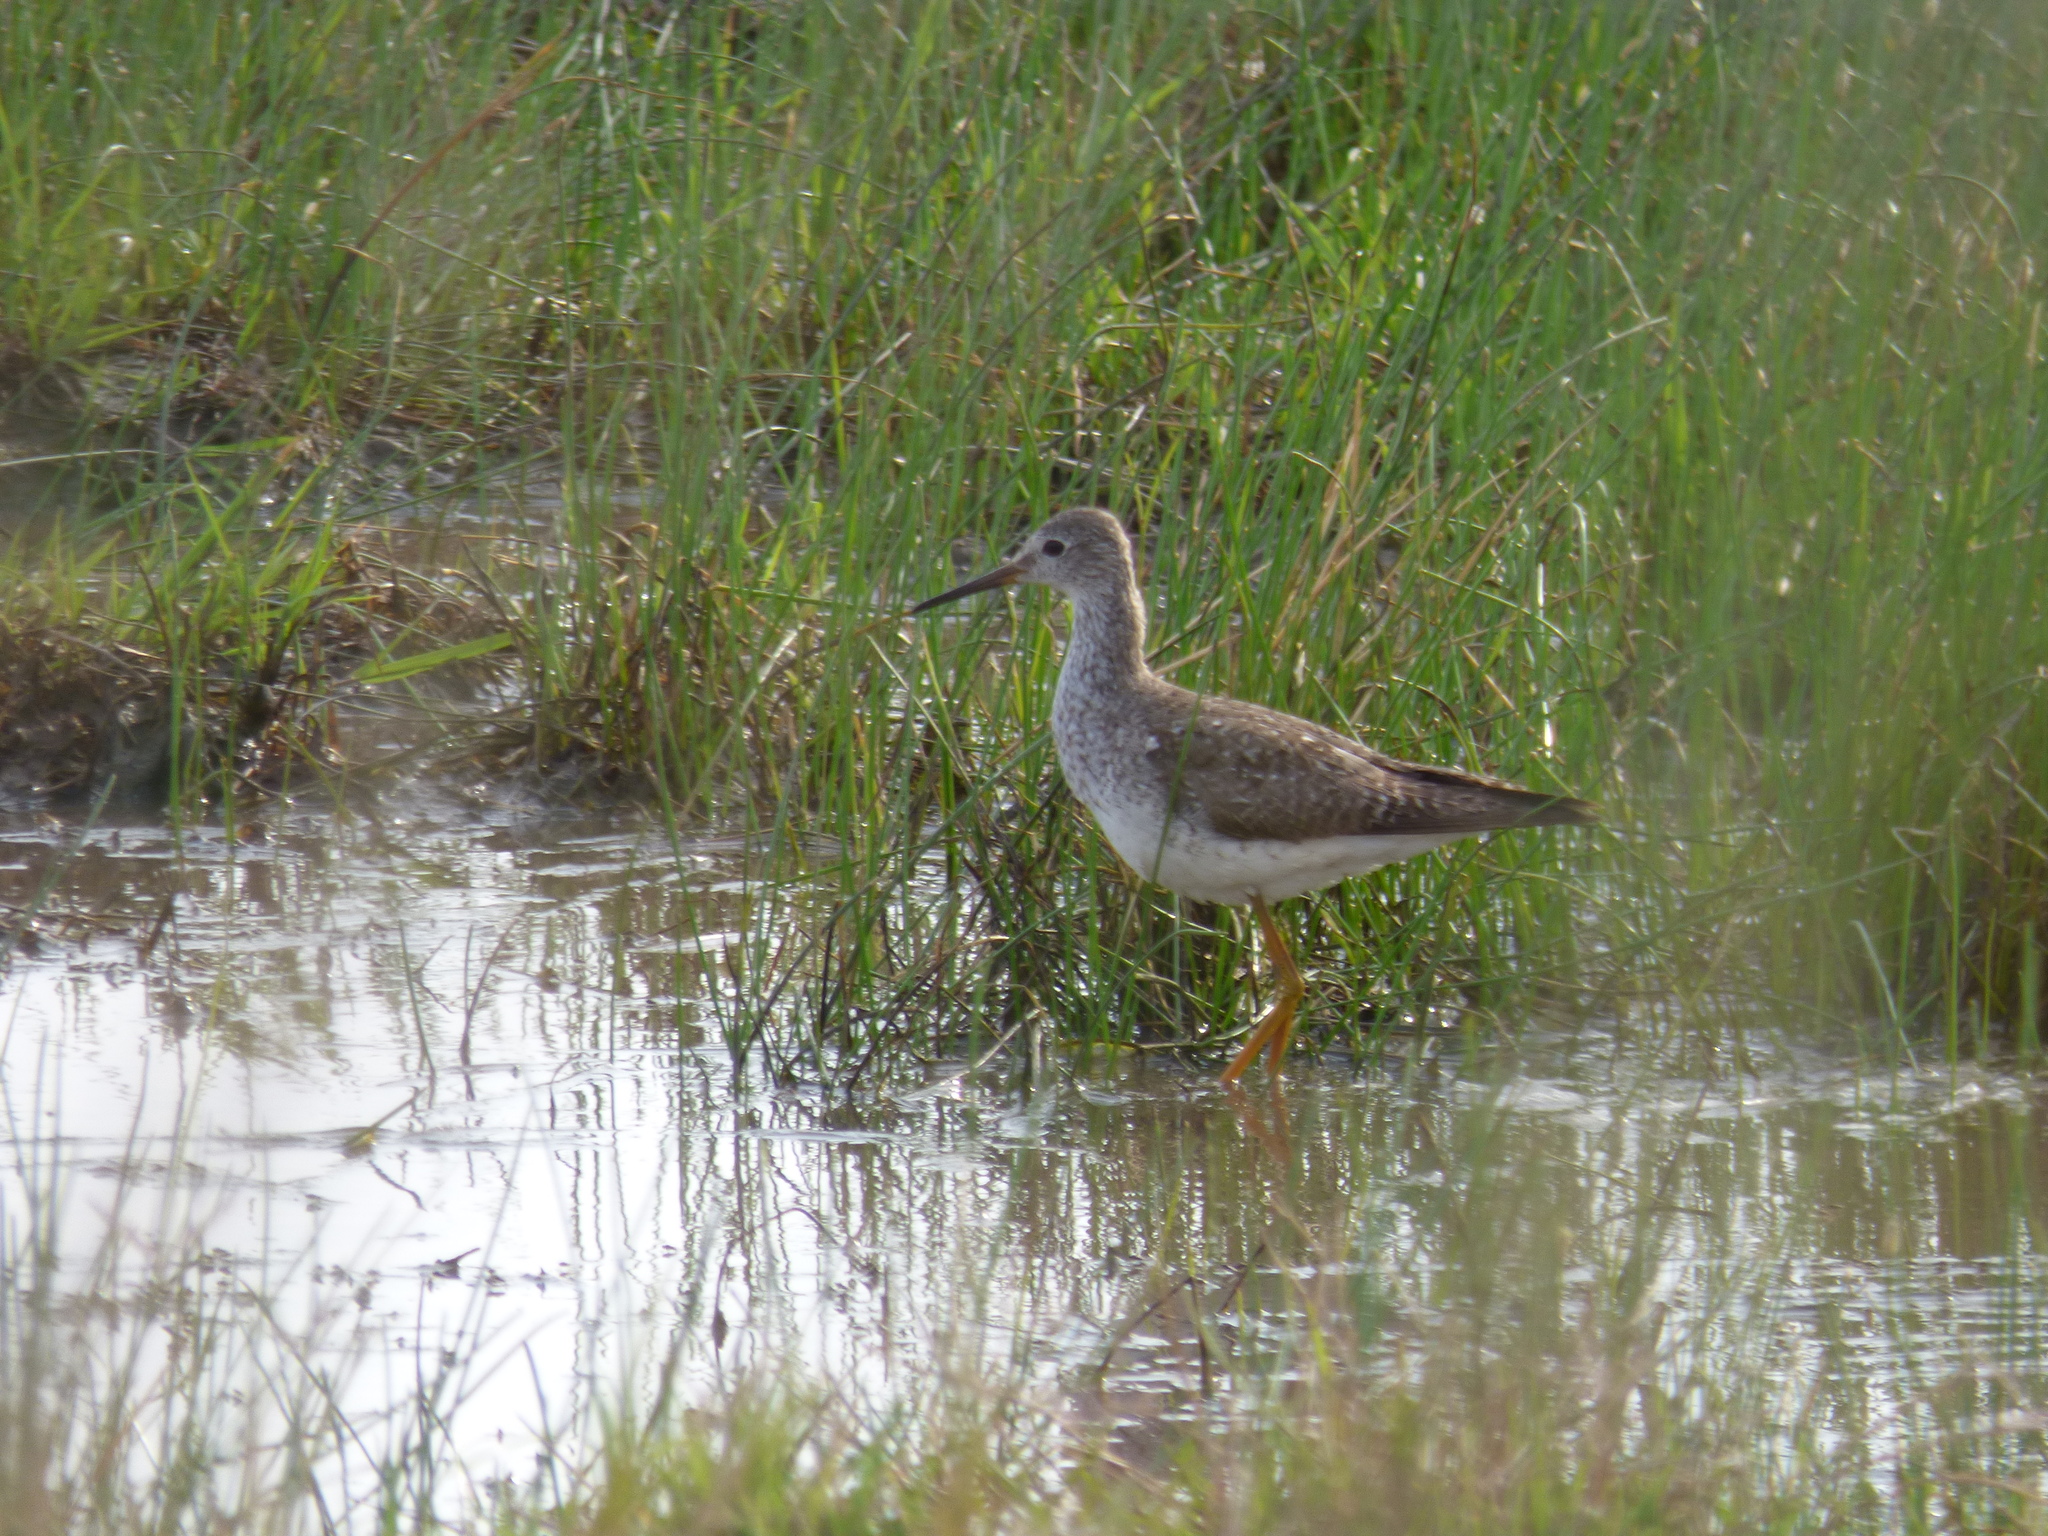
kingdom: Animalia
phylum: Chordata
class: Aves
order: Charadriiformes
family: Scolopacidae
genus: Tringa
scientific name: Tringa flavipes
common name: Lesser yellowlegs
